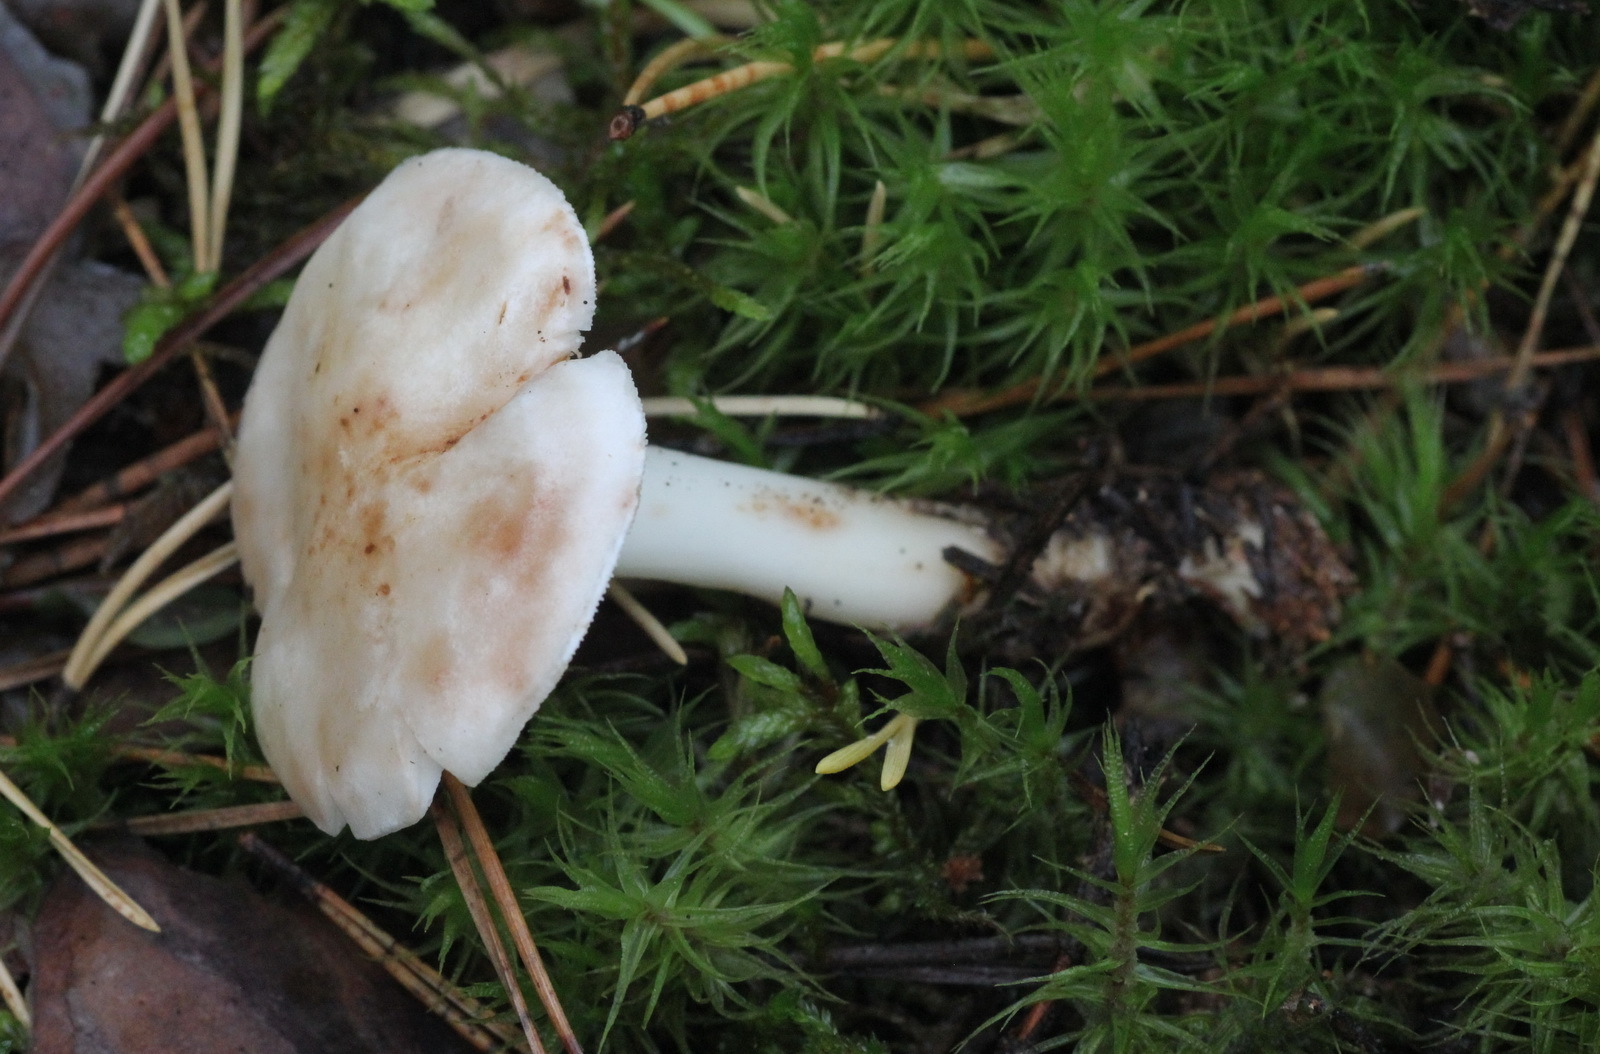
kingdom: Fungi
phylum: Basidiomycota
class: Agaricomycetes
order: Agaricales
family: Omphalotaceae
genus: Rhodocollybia
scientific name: Rhodocollybia maculata
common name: Spotted tough-shank
